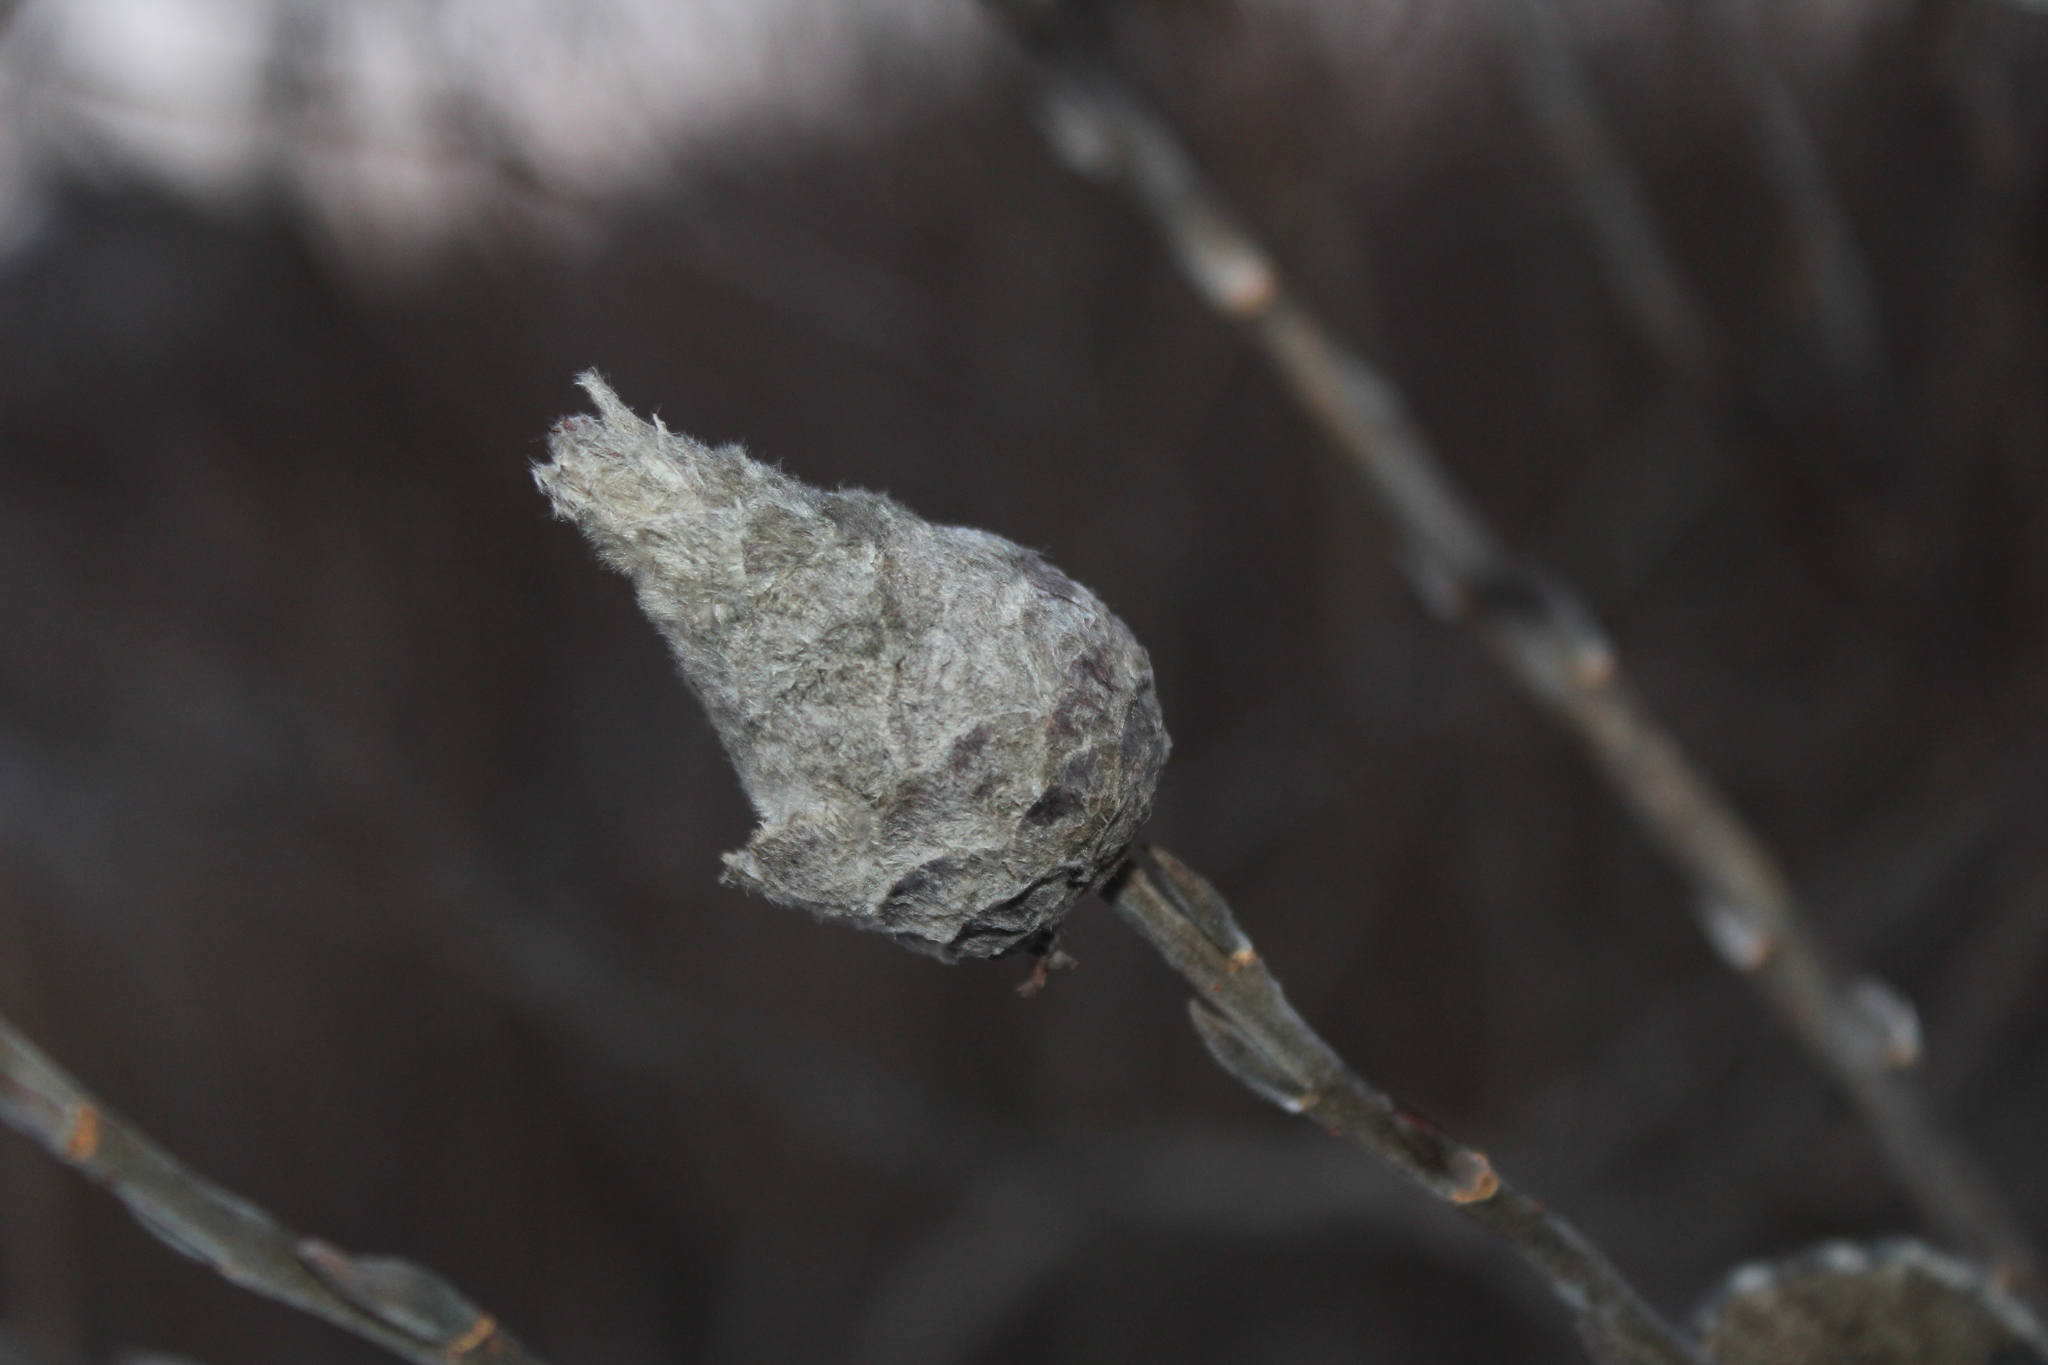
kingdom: Animalia
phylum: Arthropoda
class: Insecta
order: Diptera
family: Cecidomyiidae
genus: Rabdophaga
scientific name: Rabdophaga strobiloides
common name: Willow pinecone gall midge
